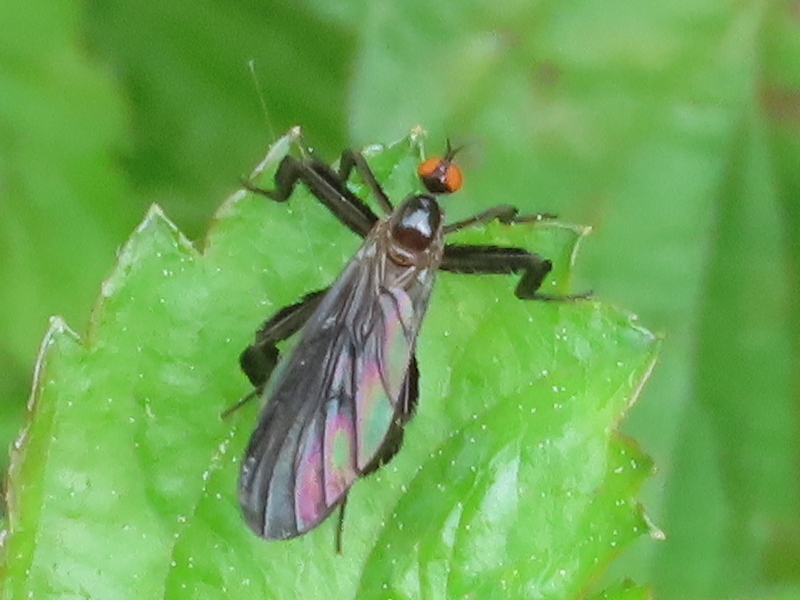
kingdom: Animalia
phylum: Arthropoda
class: Insecta
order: Diptera
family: Empididae
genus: Rhamphomyia
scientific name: Rhamphomyia longicauda
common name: Long-tailed dance fly
